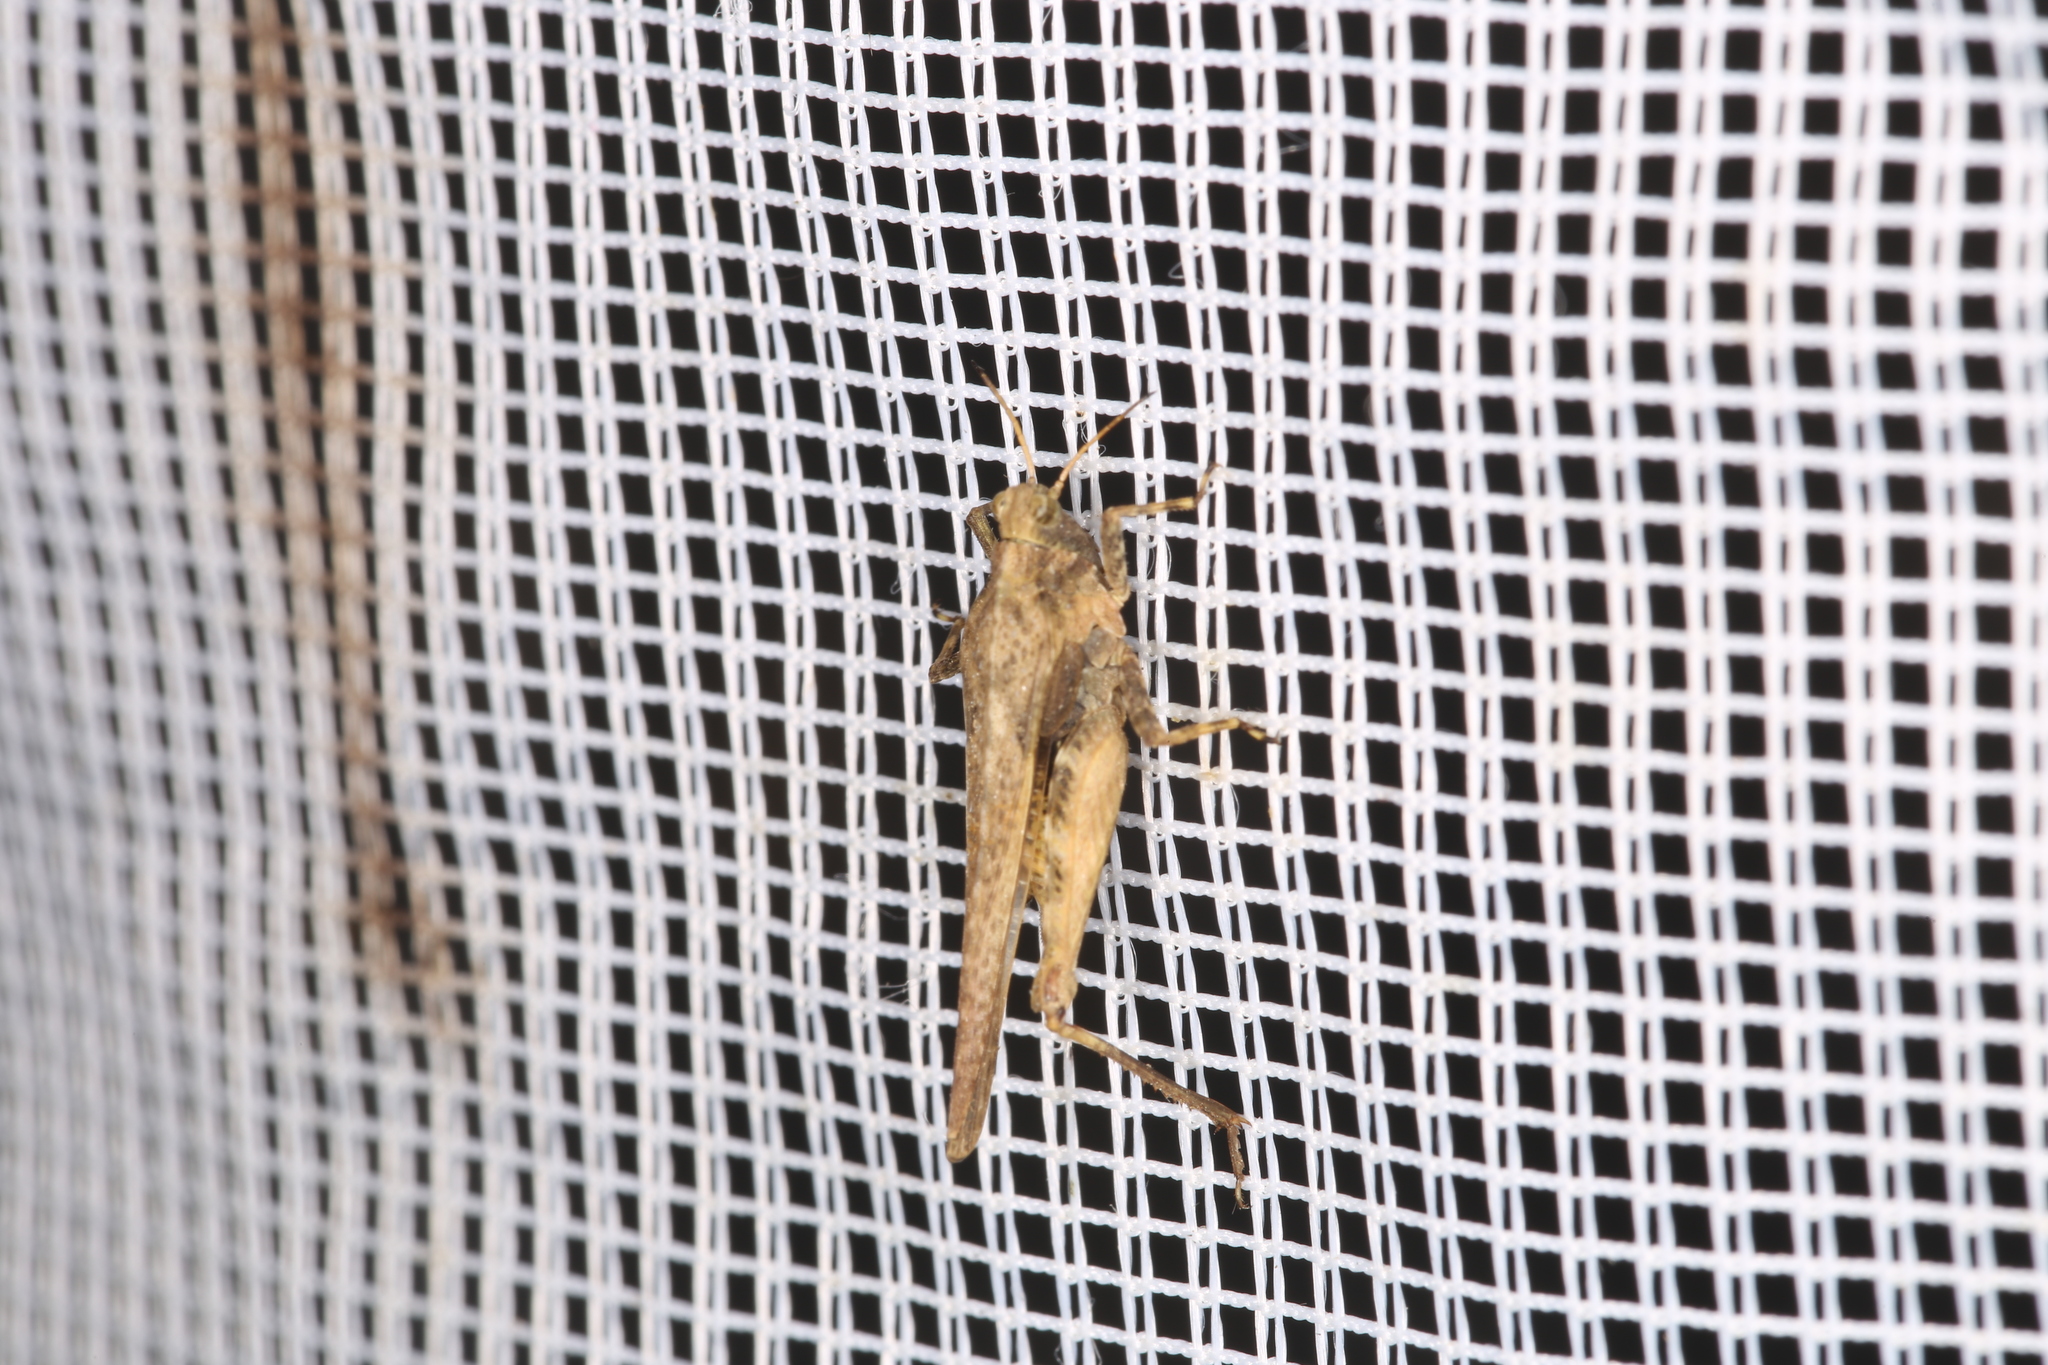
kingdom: Animalia
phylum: Arthropoda
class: Insecta
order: Orthoptera
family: Tetrigidae
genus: Tetrix
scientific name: Tetrix subulata
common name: Slender ground-hopper
